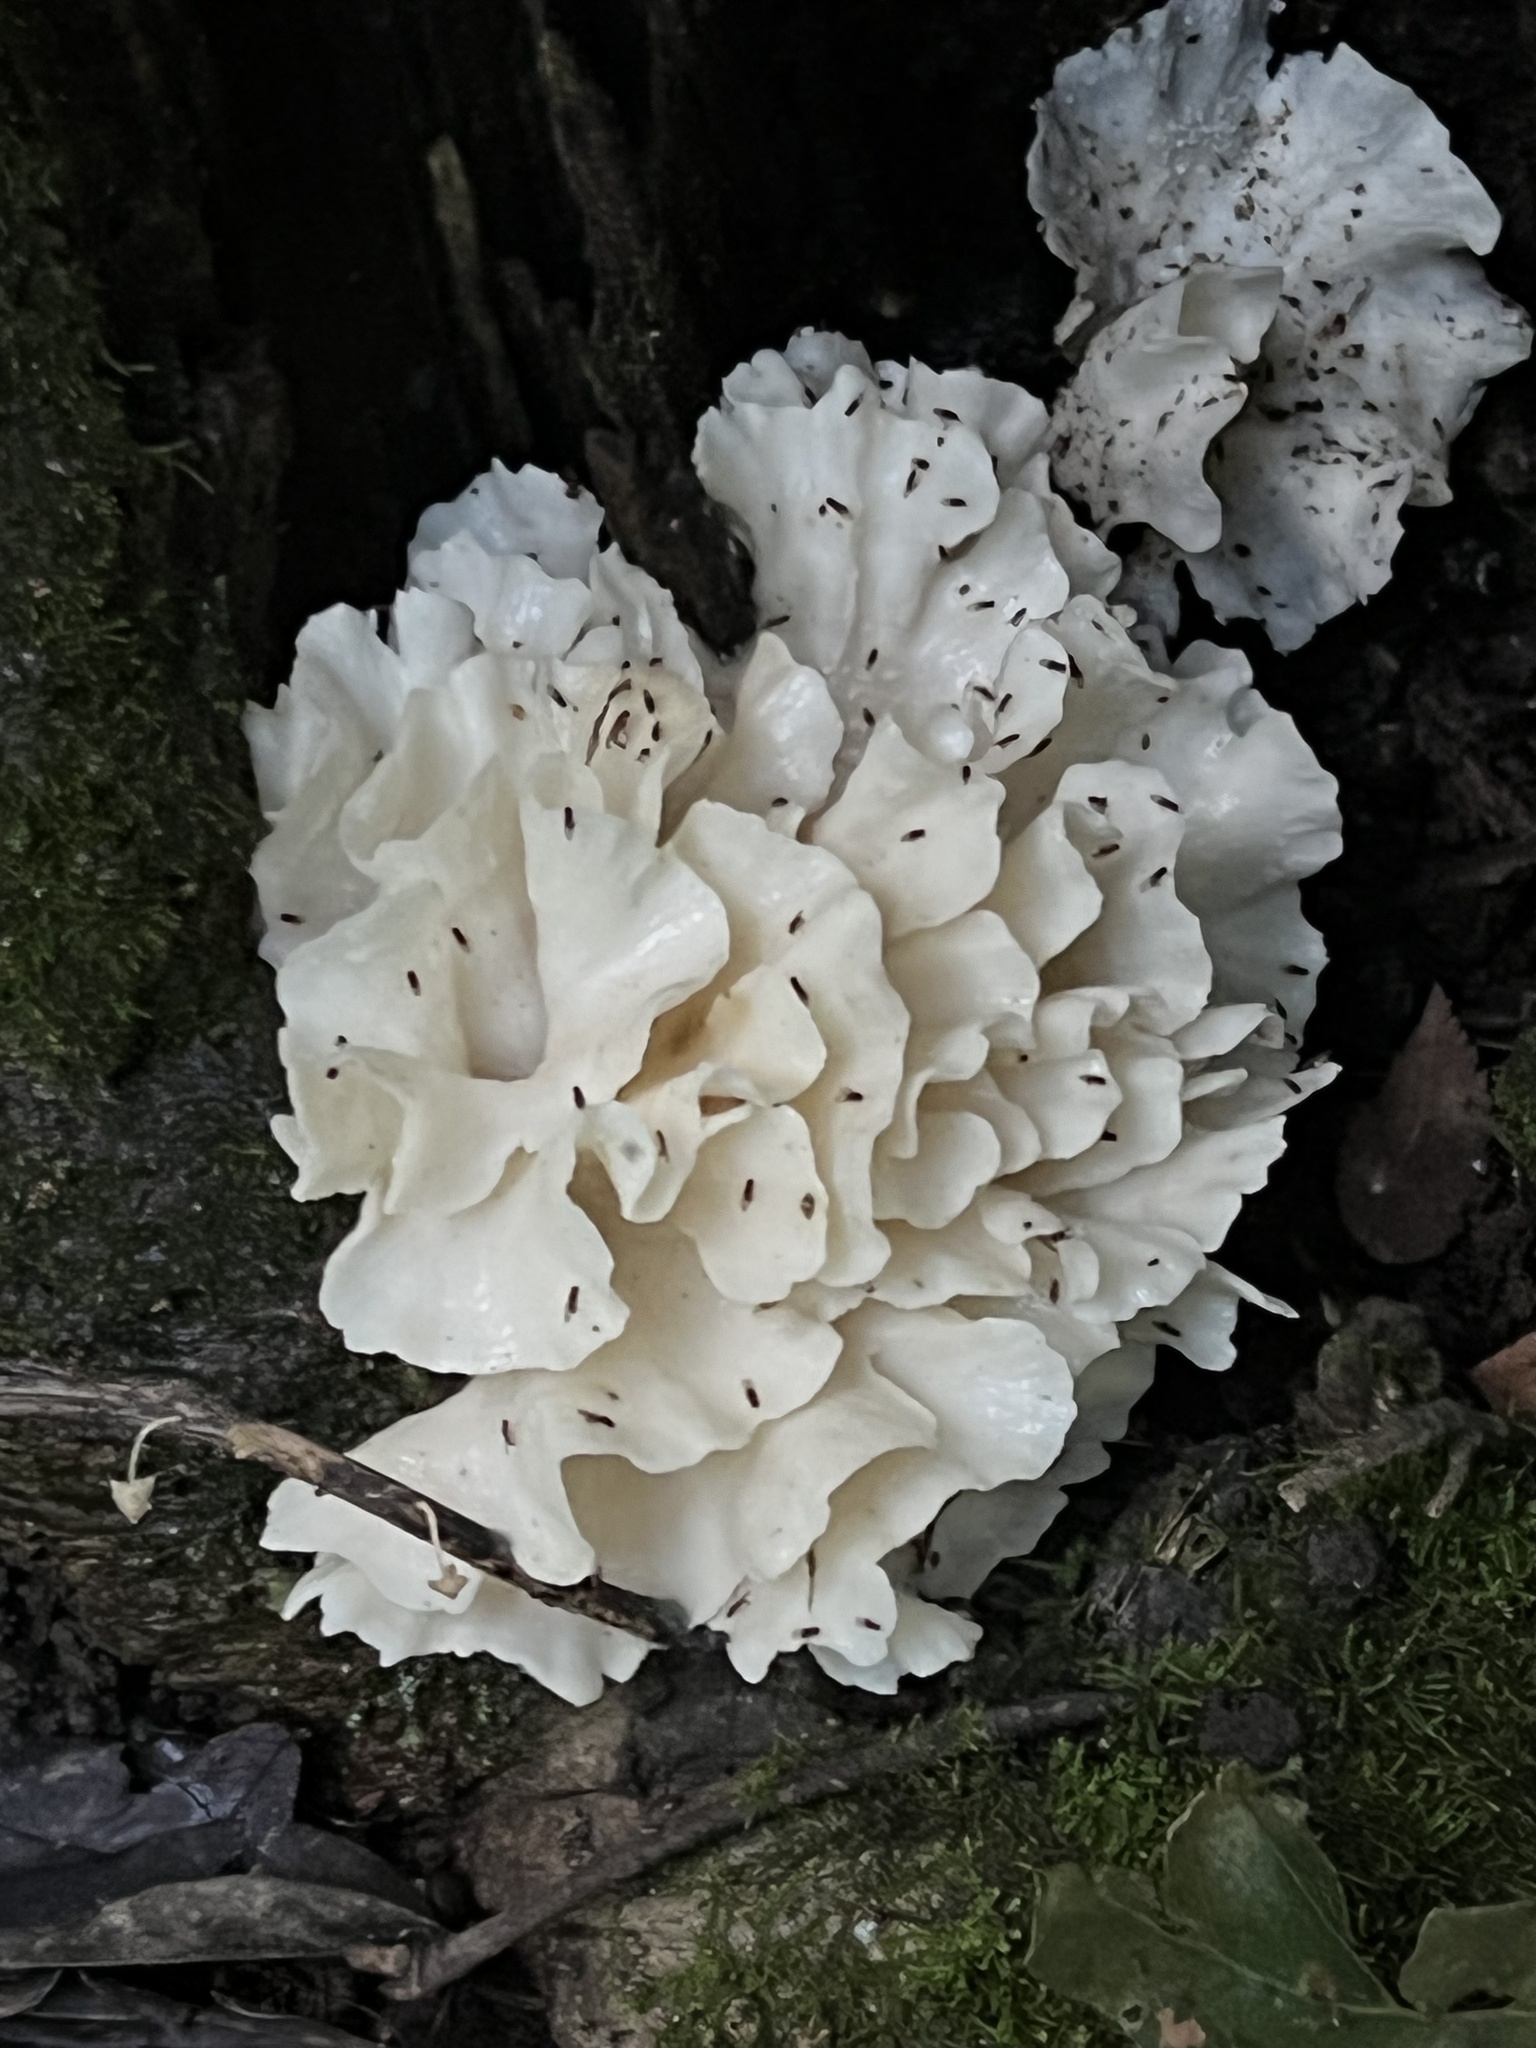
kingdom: Fungi
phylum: Basidiomycota
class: Agaricomycetes
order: Polyporales
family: Irpicaceae
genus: Irpex
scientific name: Irpex rosettiformis
